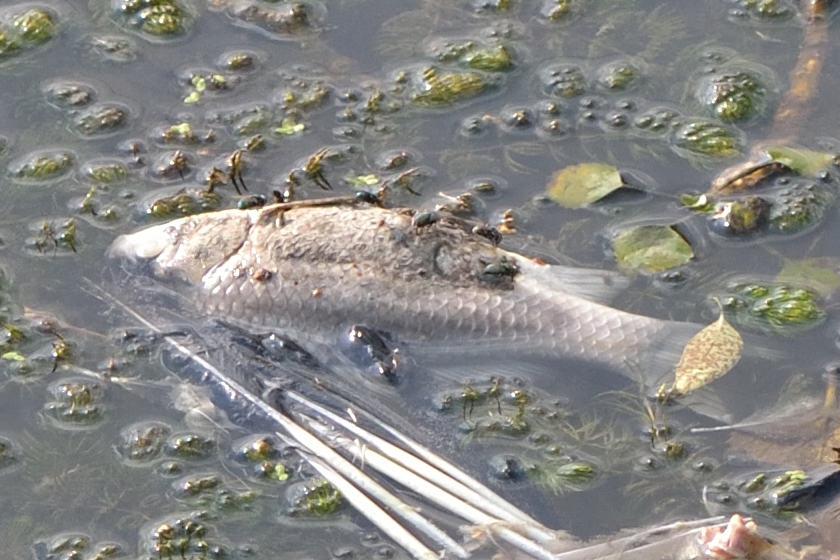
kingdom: Animalia
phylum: Chordata
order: Cypriniformes
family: Cyprinidae
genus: Carassius
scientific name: Carassius gibelio
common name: Prussian carp
